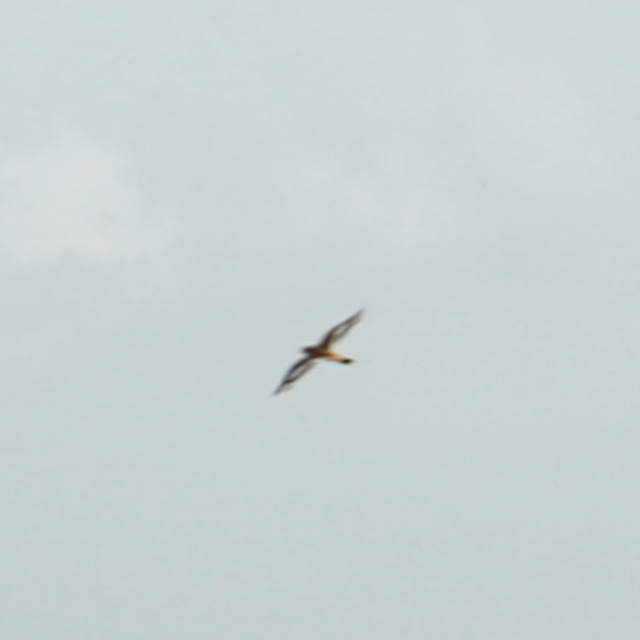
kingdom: Animalia
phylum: Chordata
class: Aves
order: Charadriiformes
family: Scolopacidae
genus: Arenaria
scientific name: Arenaria interpres
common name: Ruddy turnstone
